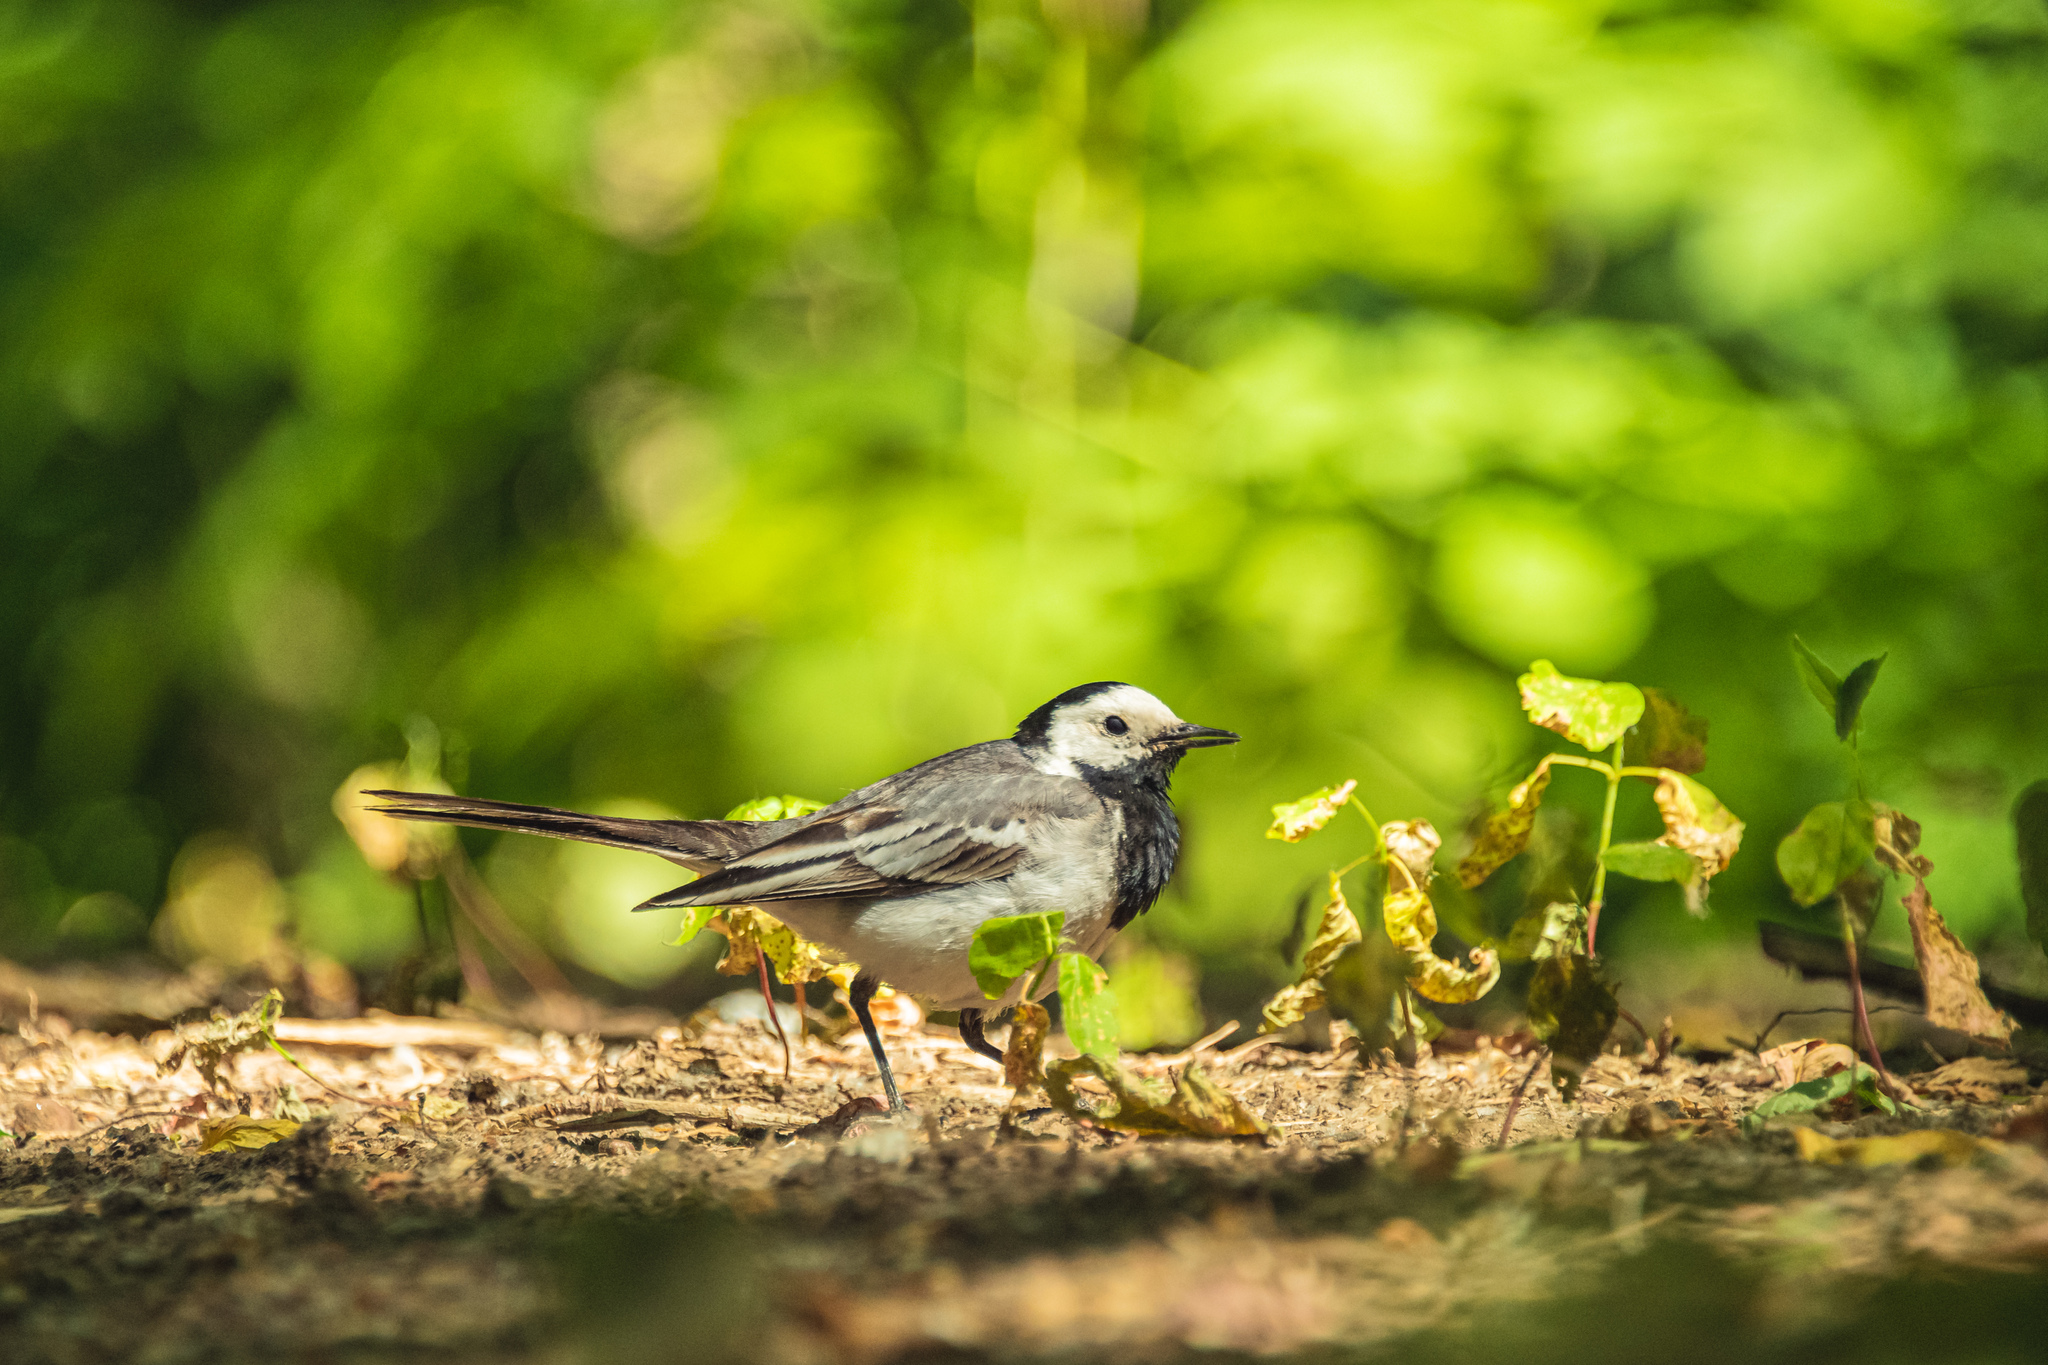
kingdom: Animalia
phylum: Chordata
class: Aves
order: Passeriformes
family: Motacillidae
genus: Motacilla
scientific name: Motacilla alba
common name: White wagtail
